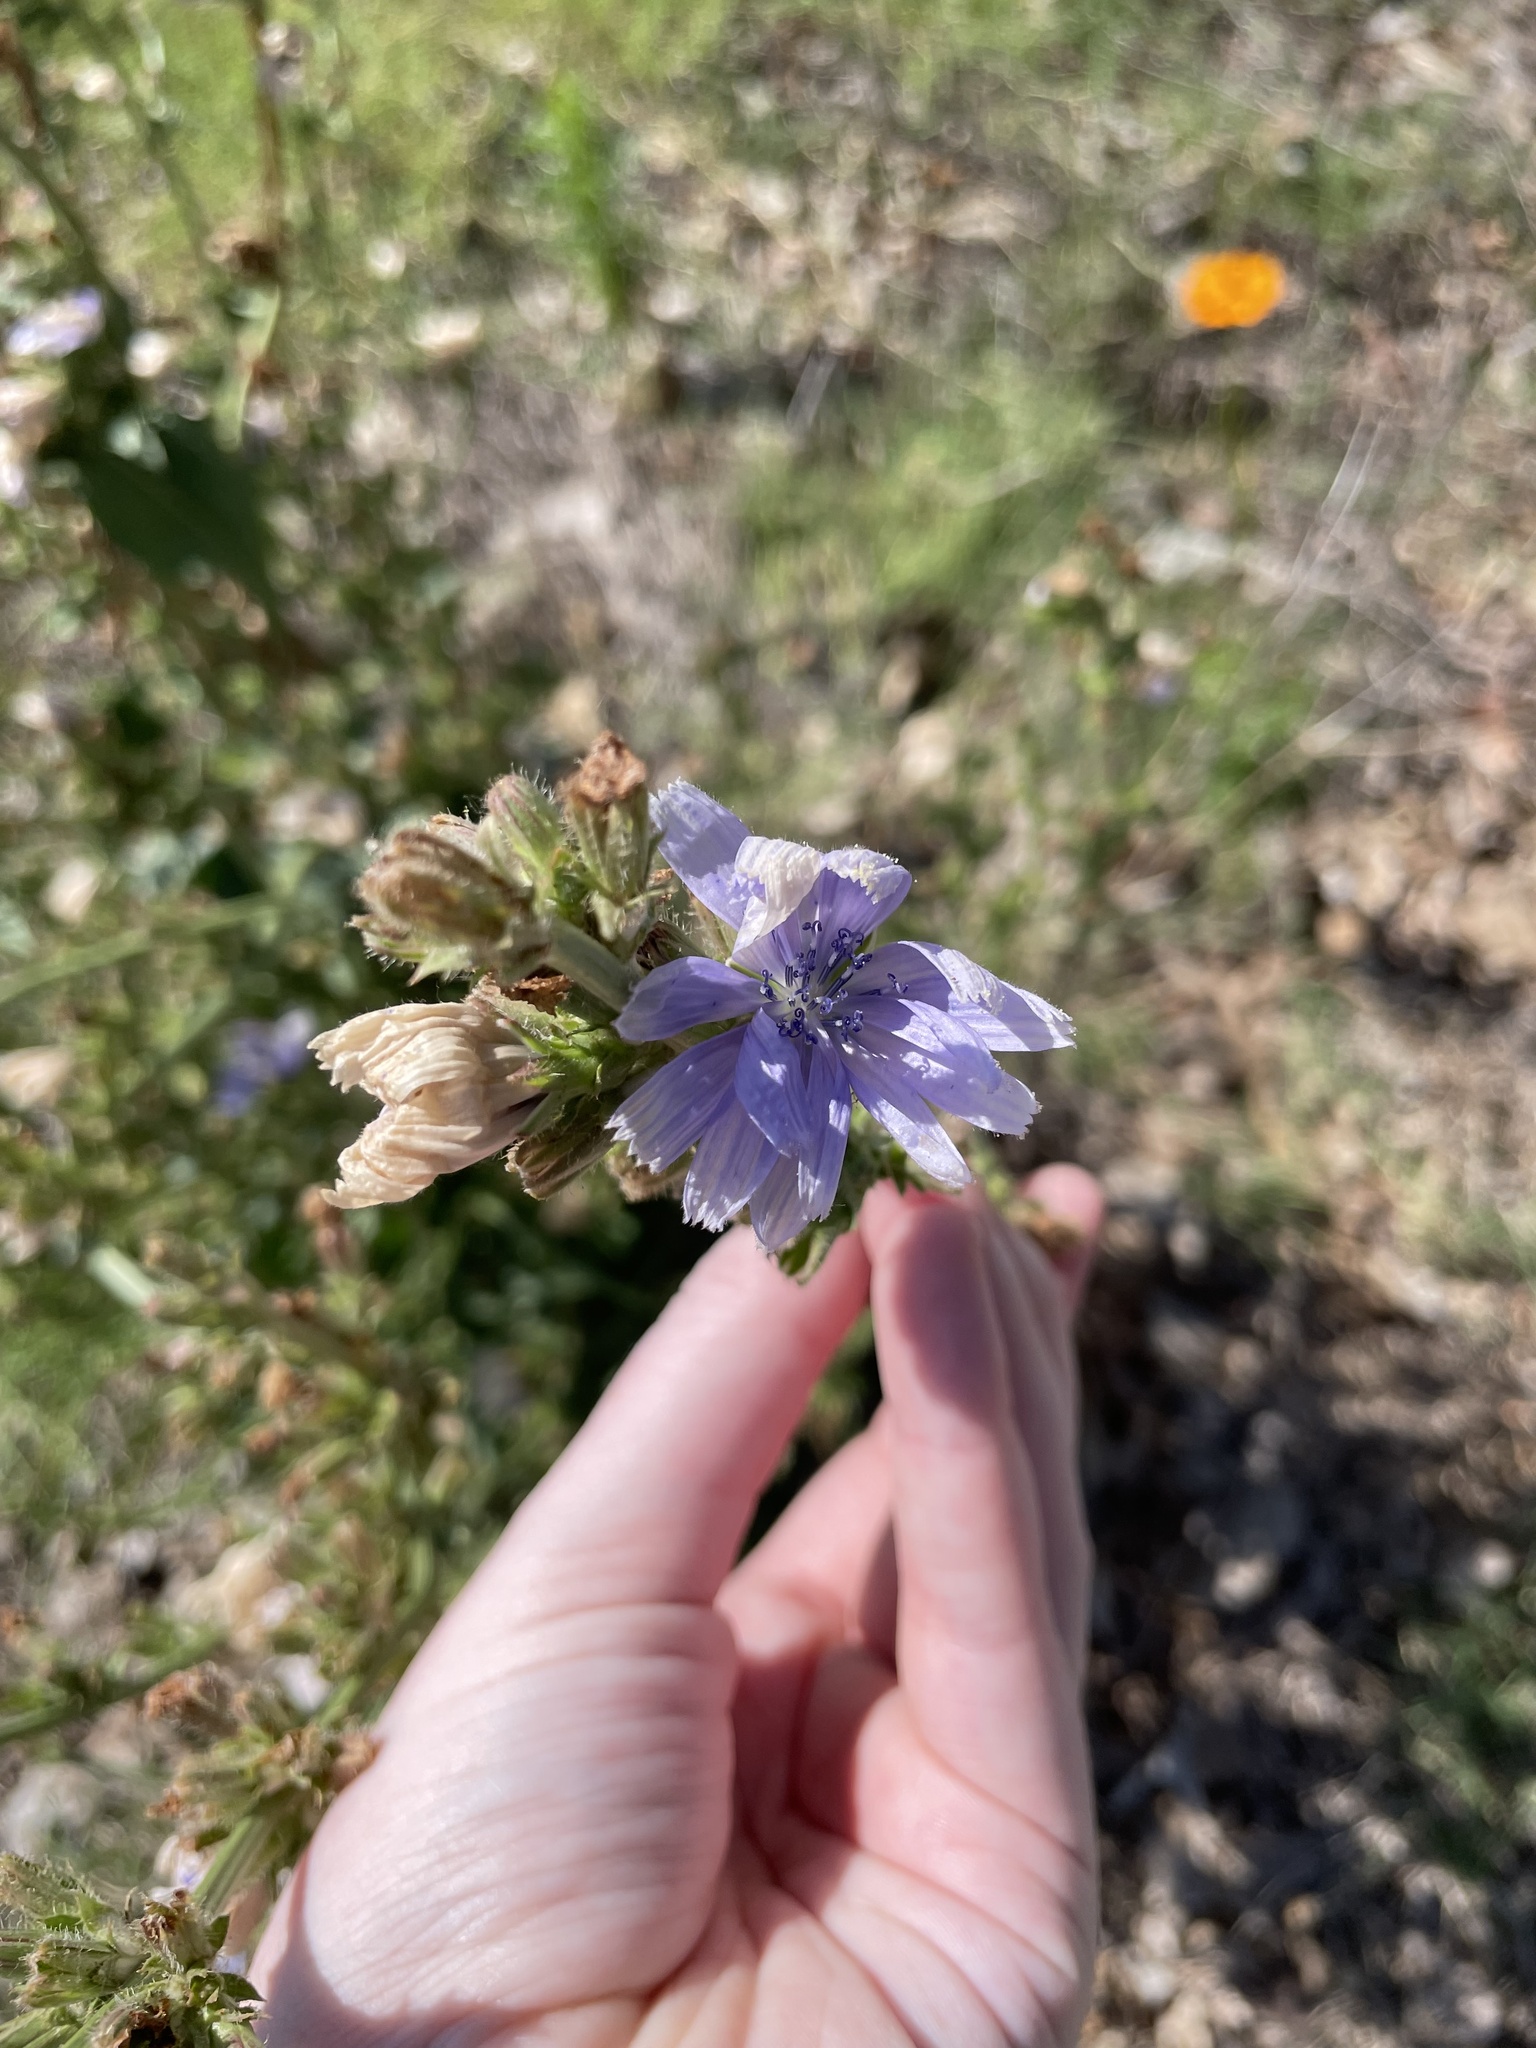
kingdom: Plantae
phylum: Tracheophyta
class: Magnoliopsida
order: Asterales
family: Asteraceae
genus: Cichorium
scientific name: Cichorium intybus
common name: Chicory
